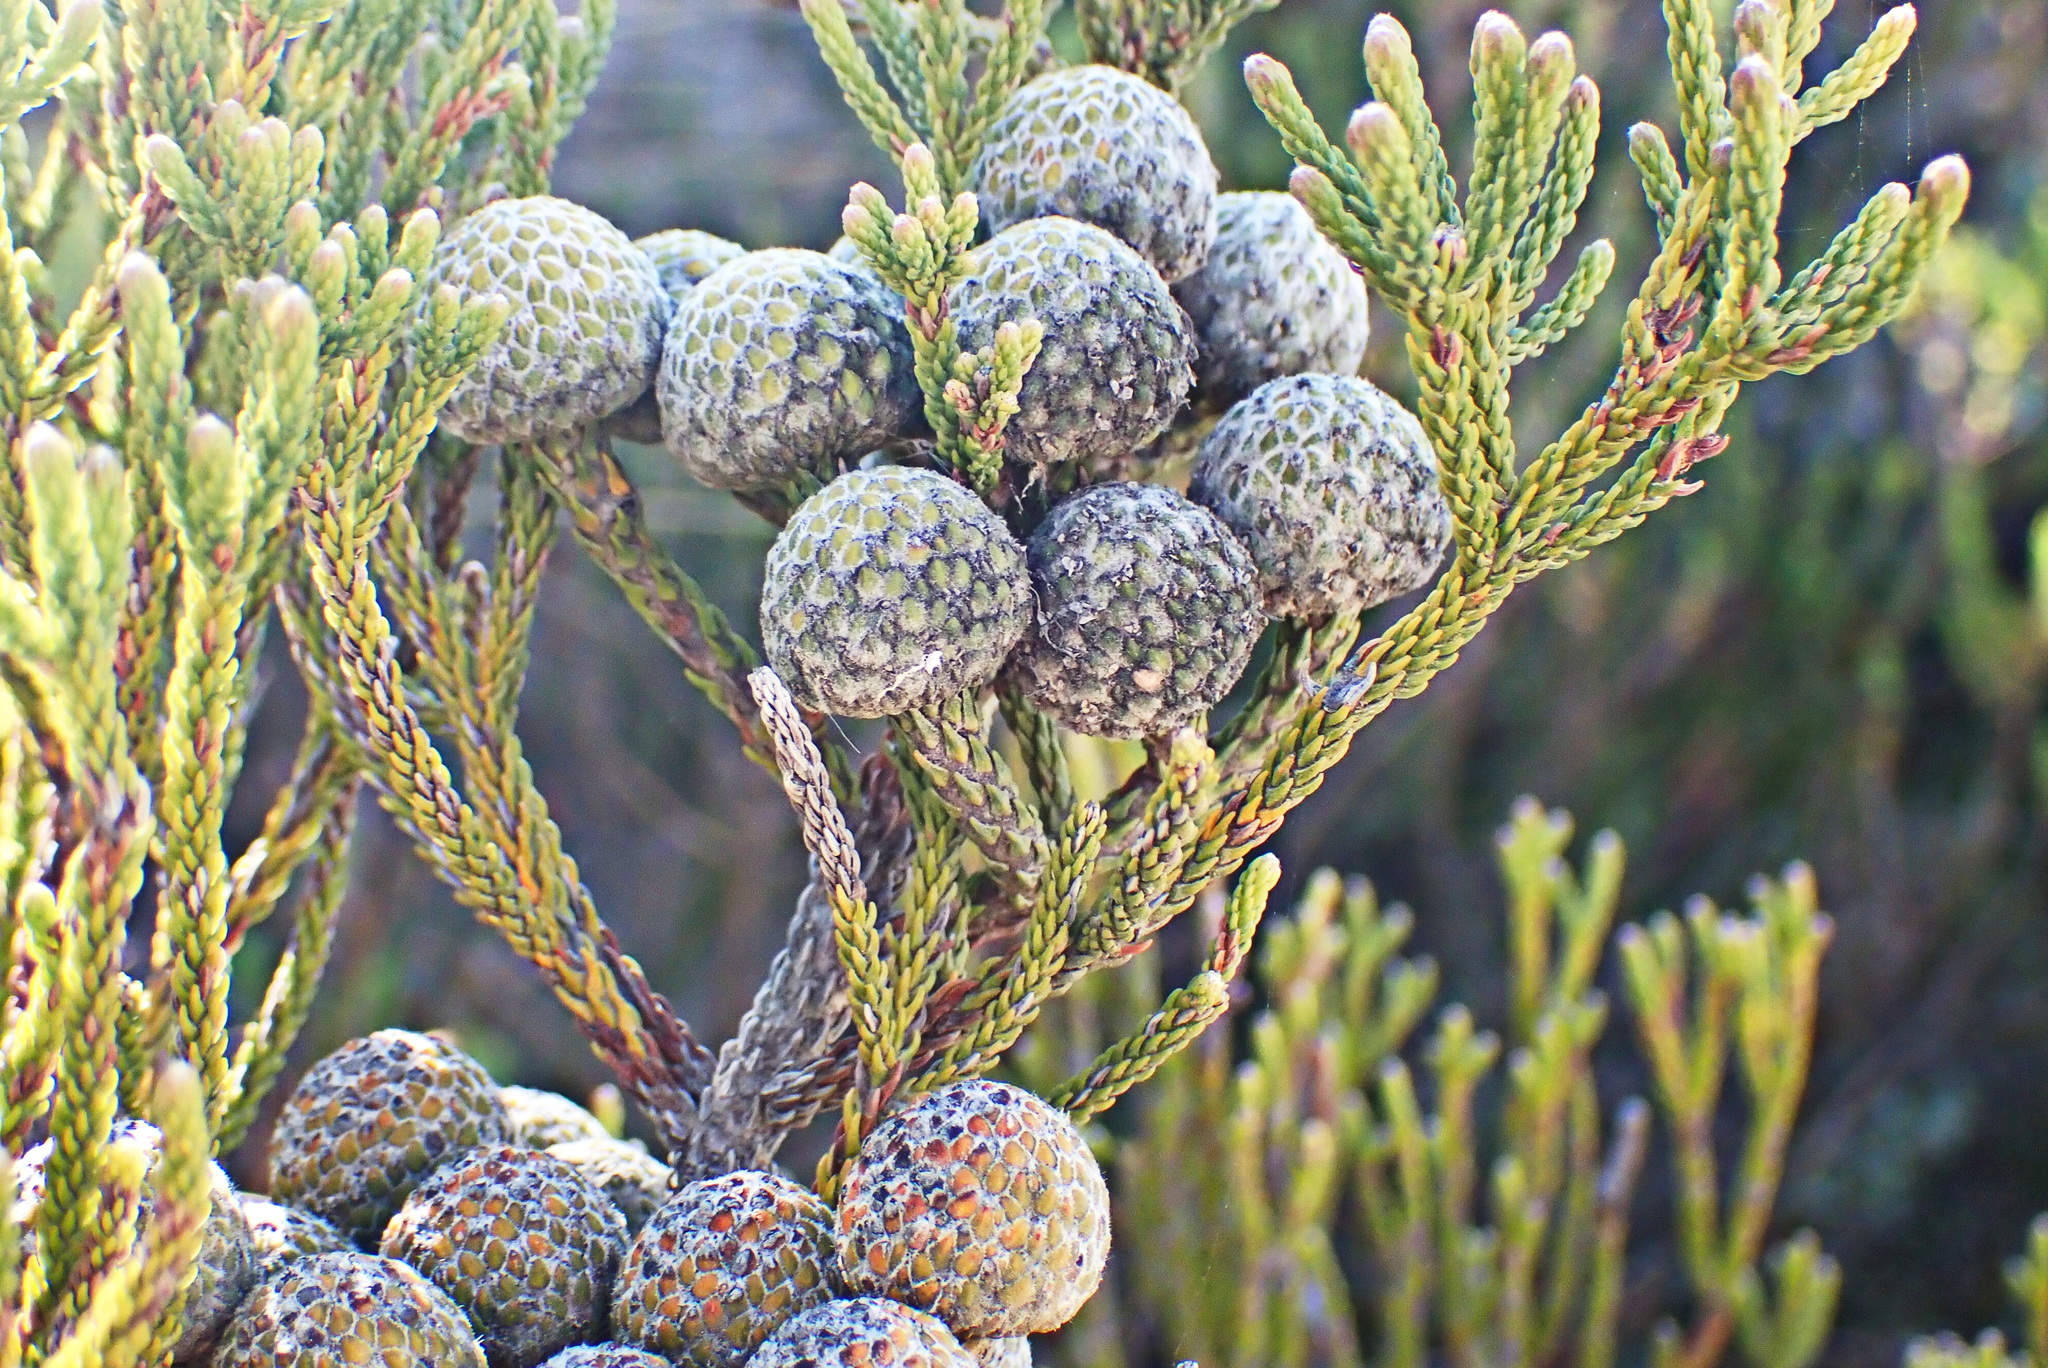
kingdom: Plantae
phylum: Tracheophyta
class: Magnoliopsida
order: Bruniales
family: Bruniaceae
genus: Brunia
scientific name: Brunia noduliflora
